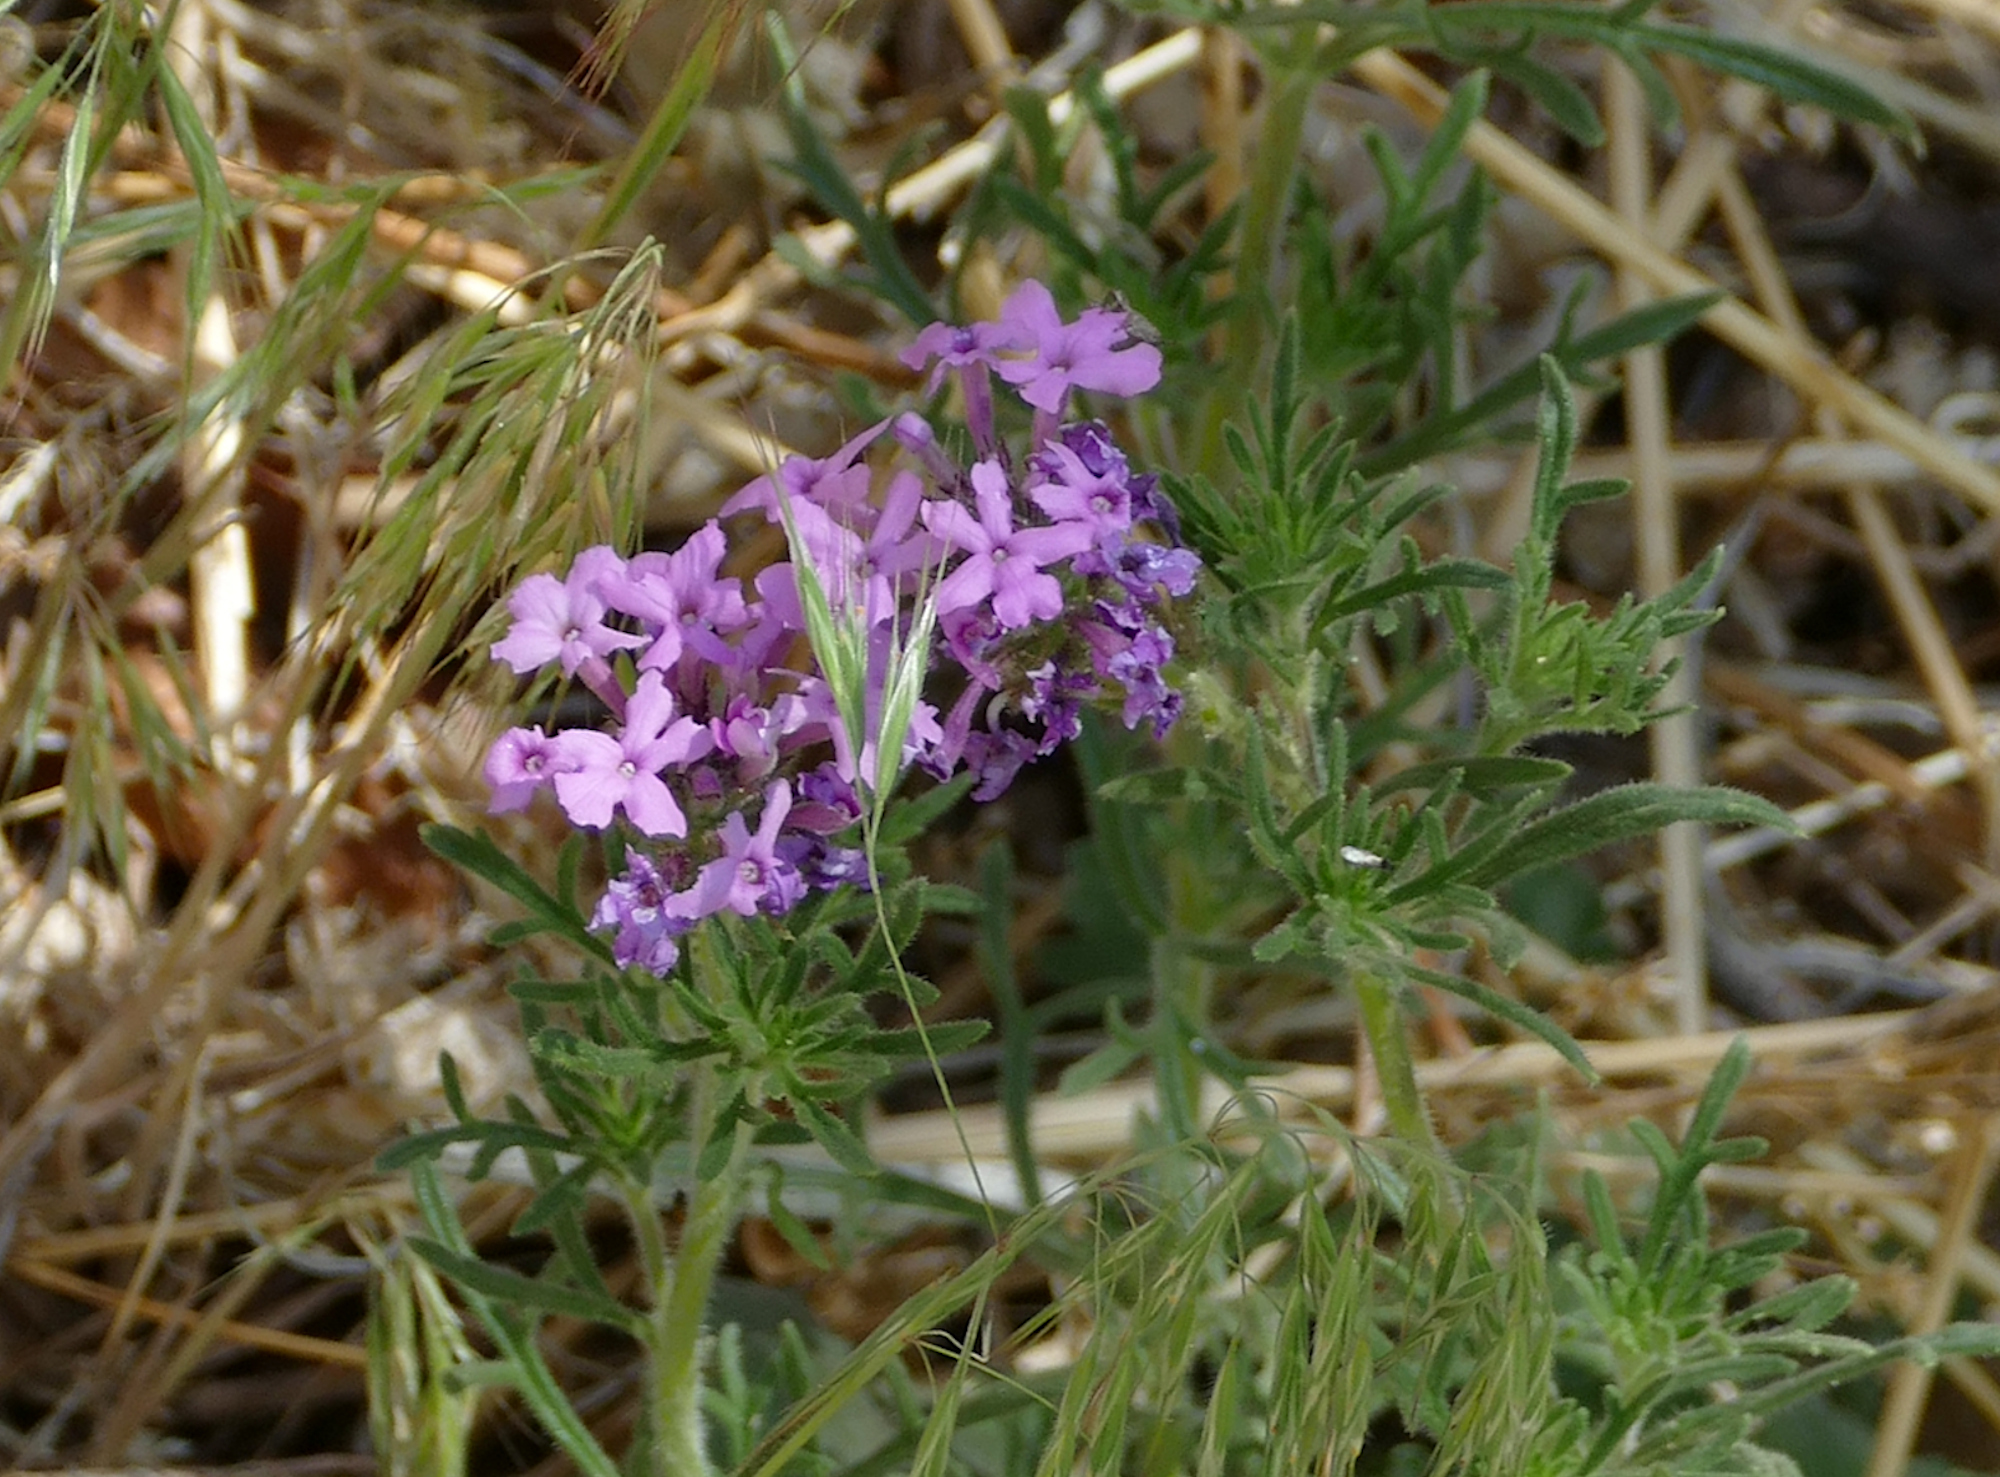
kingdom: Plantae
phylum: Tracheophyta
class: Magnoliopsida
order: Lamiales
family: Verbenaceae
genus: Verbena
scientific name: Verbena bipinnatifida
